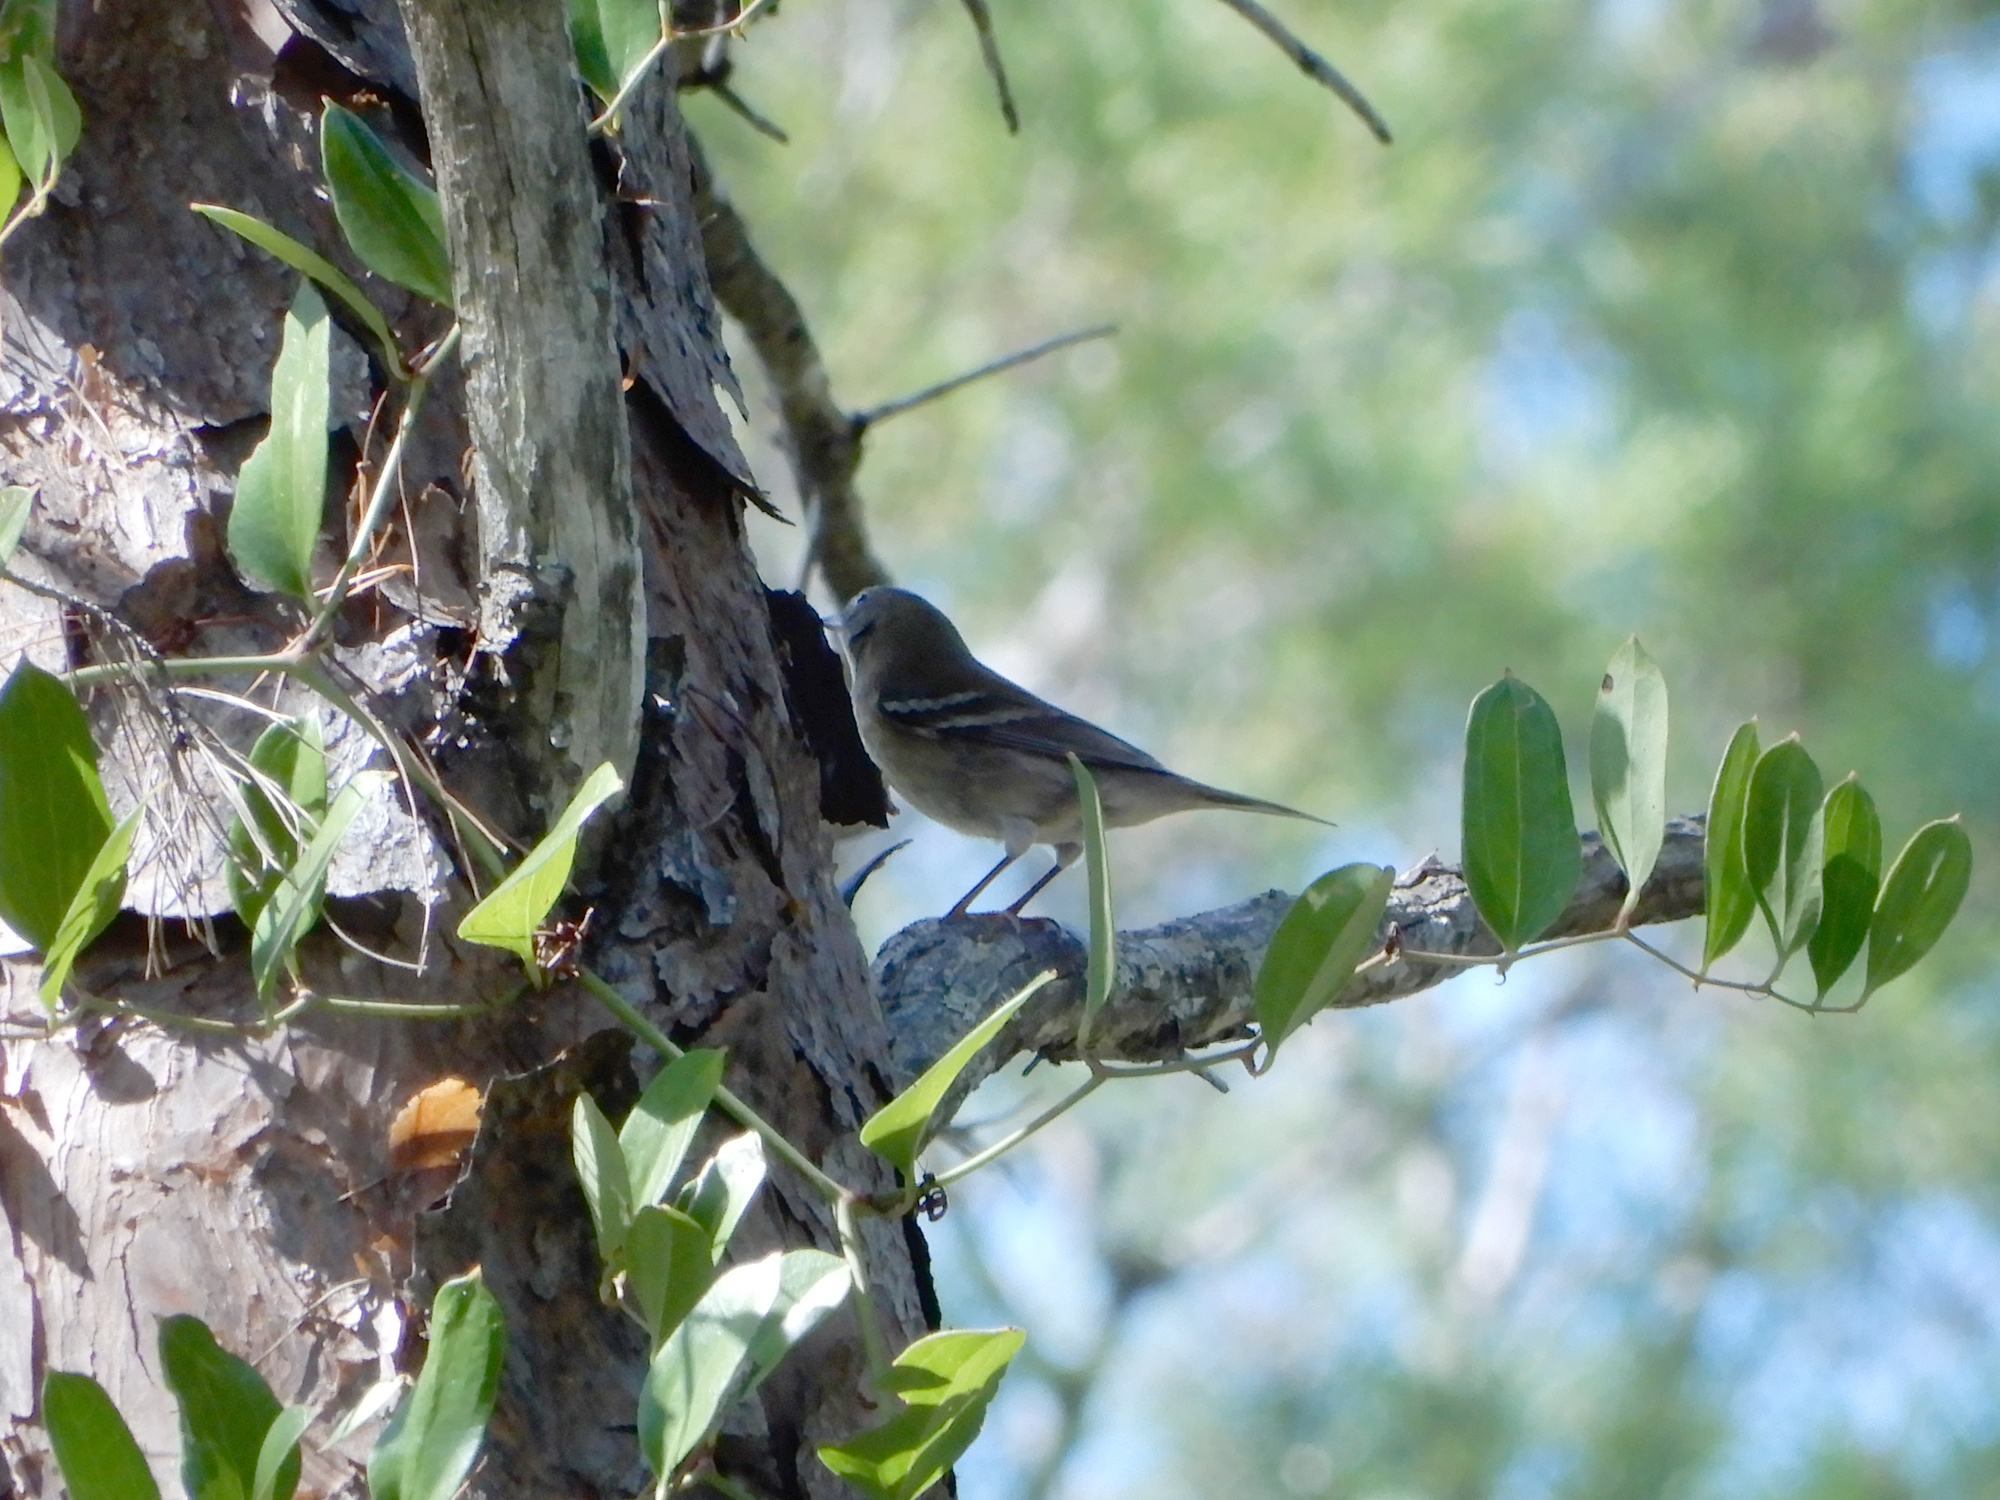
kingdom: Animalia
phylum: Chordata
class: Aves
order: Passeriformes
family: Parulidae
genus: Setophaga
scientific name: Setophaga pinus
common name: Pine warbler
